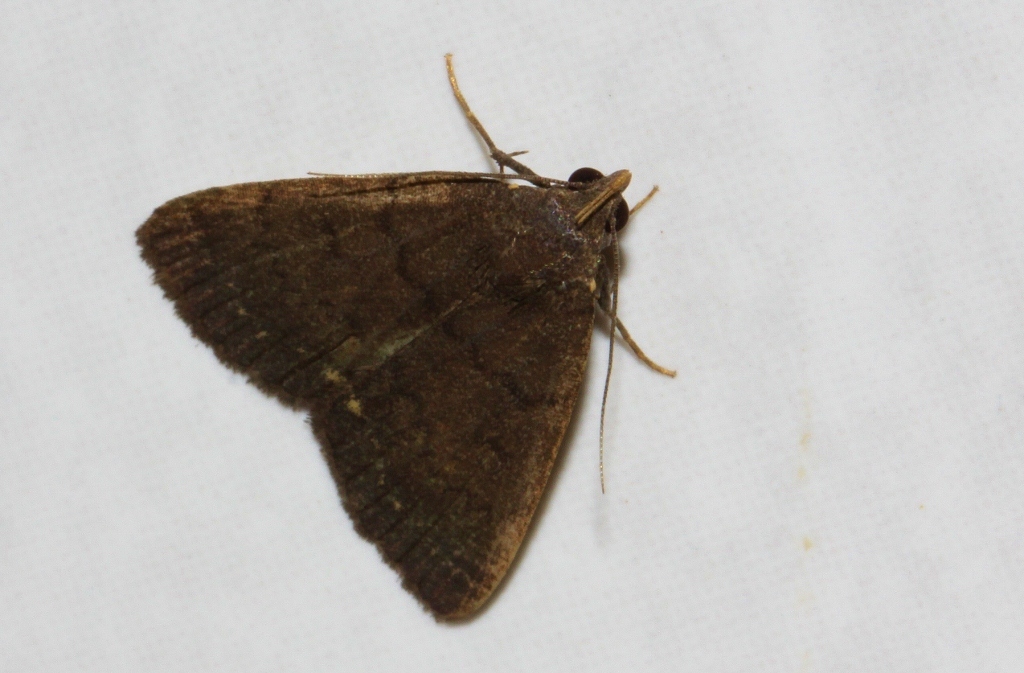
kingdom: Animalia
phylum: Arthropoda
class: Insecta
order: Lepidoptera
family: Erebidae
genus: Nodaria
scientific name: Nodaria nodosalis
